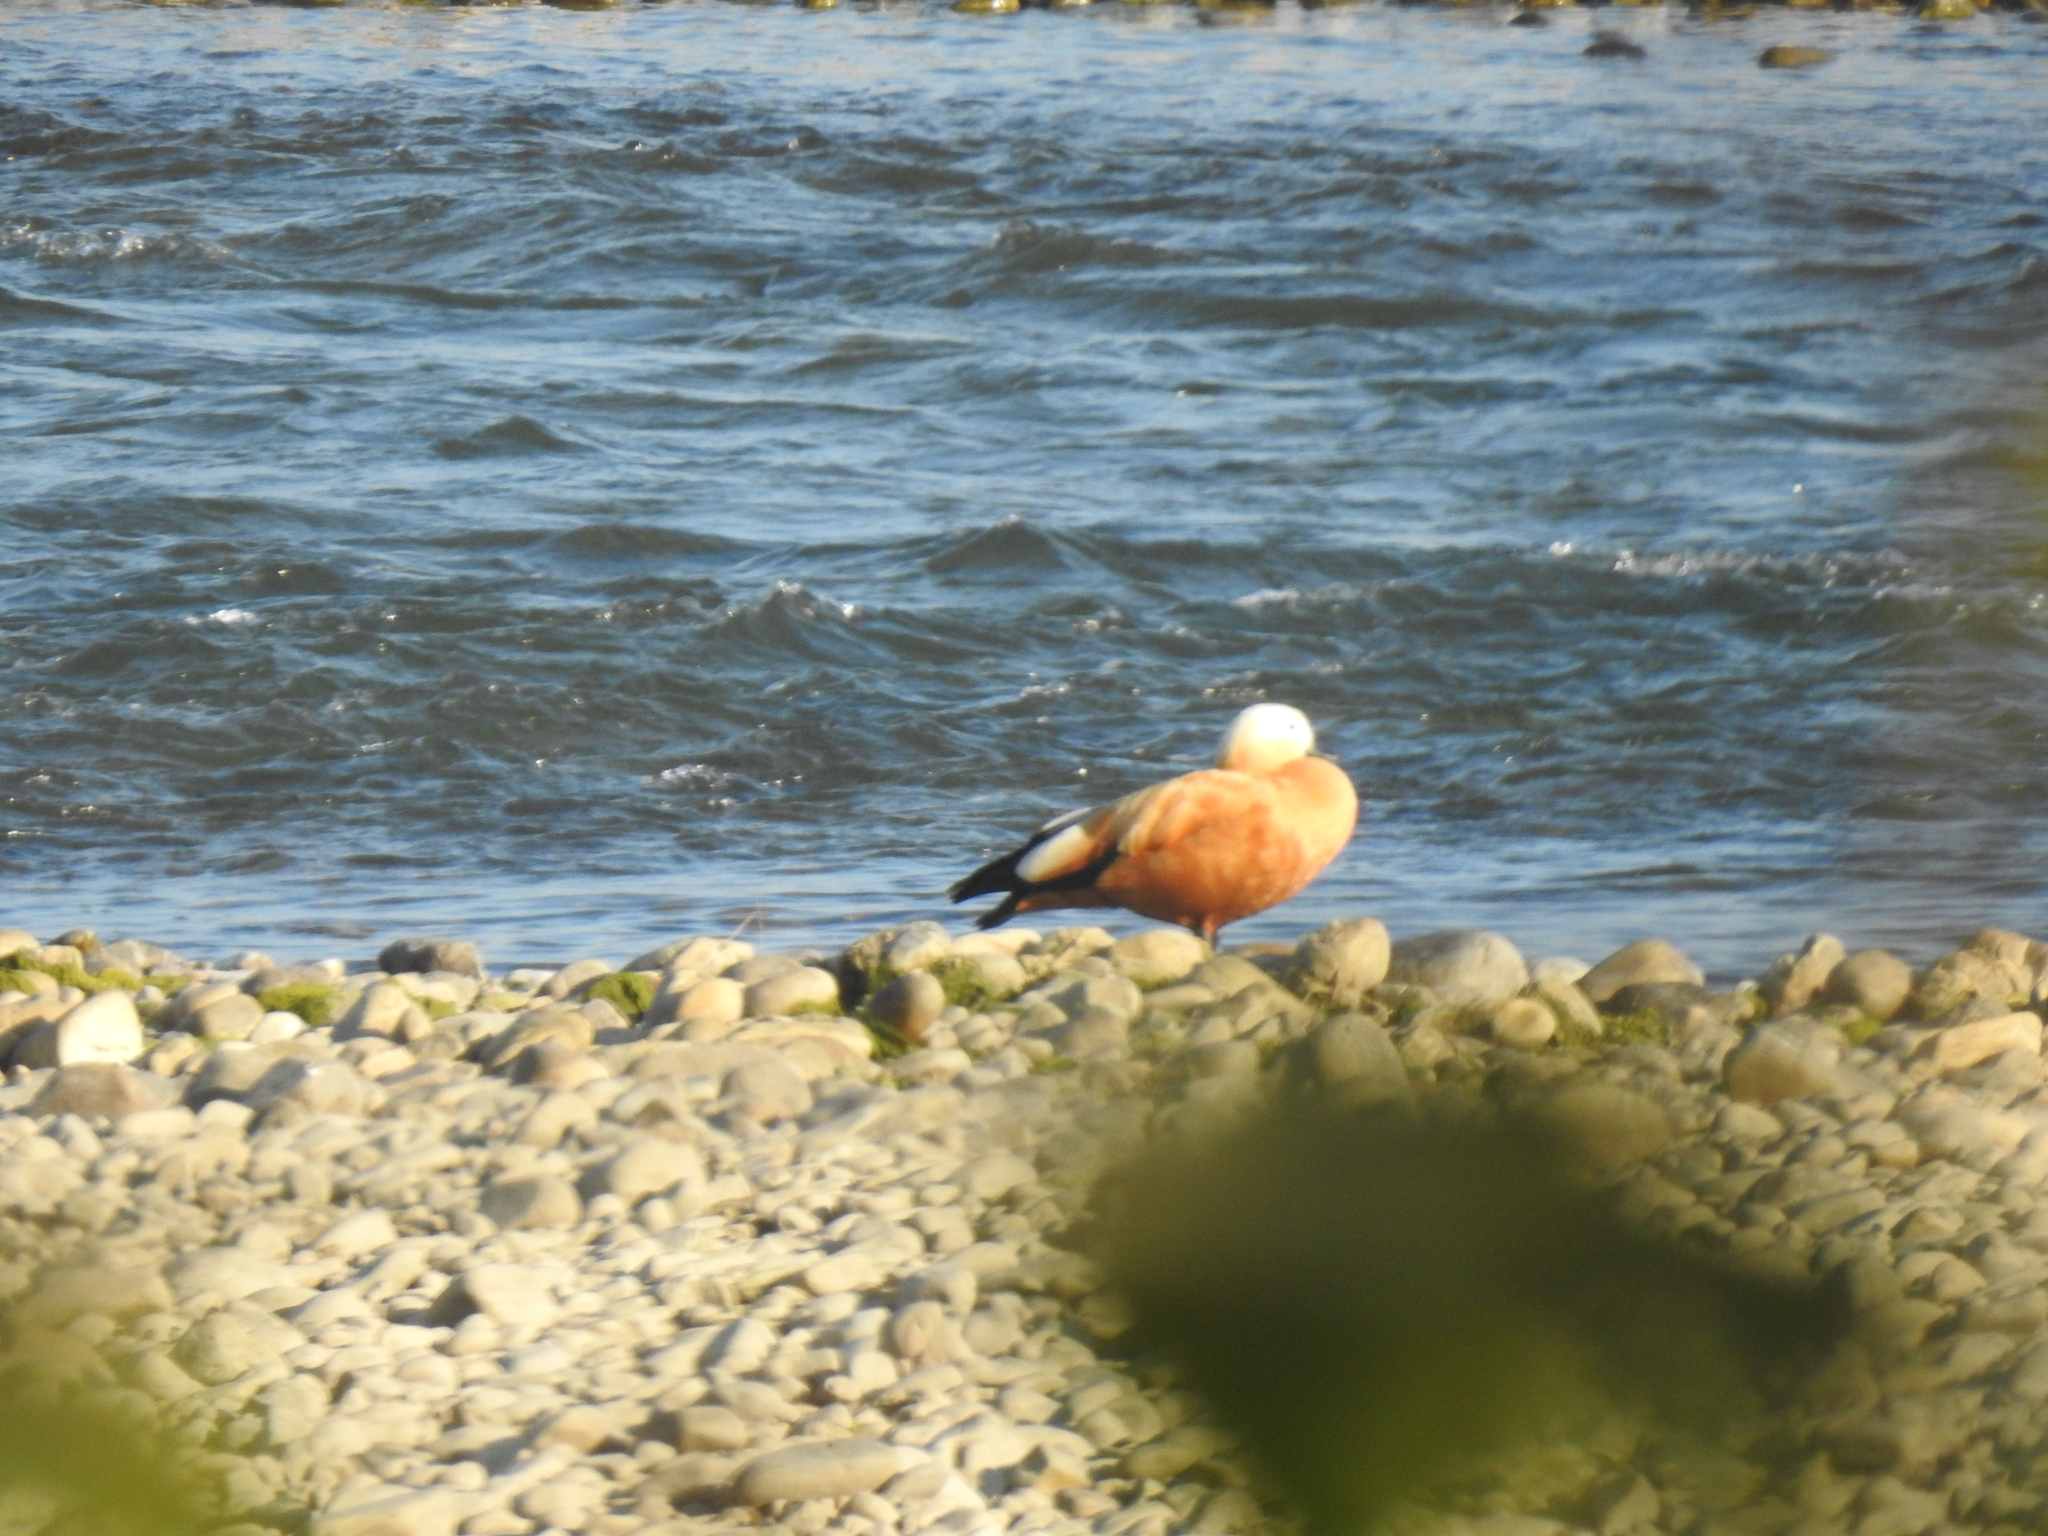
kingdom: Animalia
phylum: Chordata
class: Aves
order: Anseriformes
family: Anatidae
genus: Tadorna
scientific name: Tadorna ferruginea
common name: Ruddy shelduck
